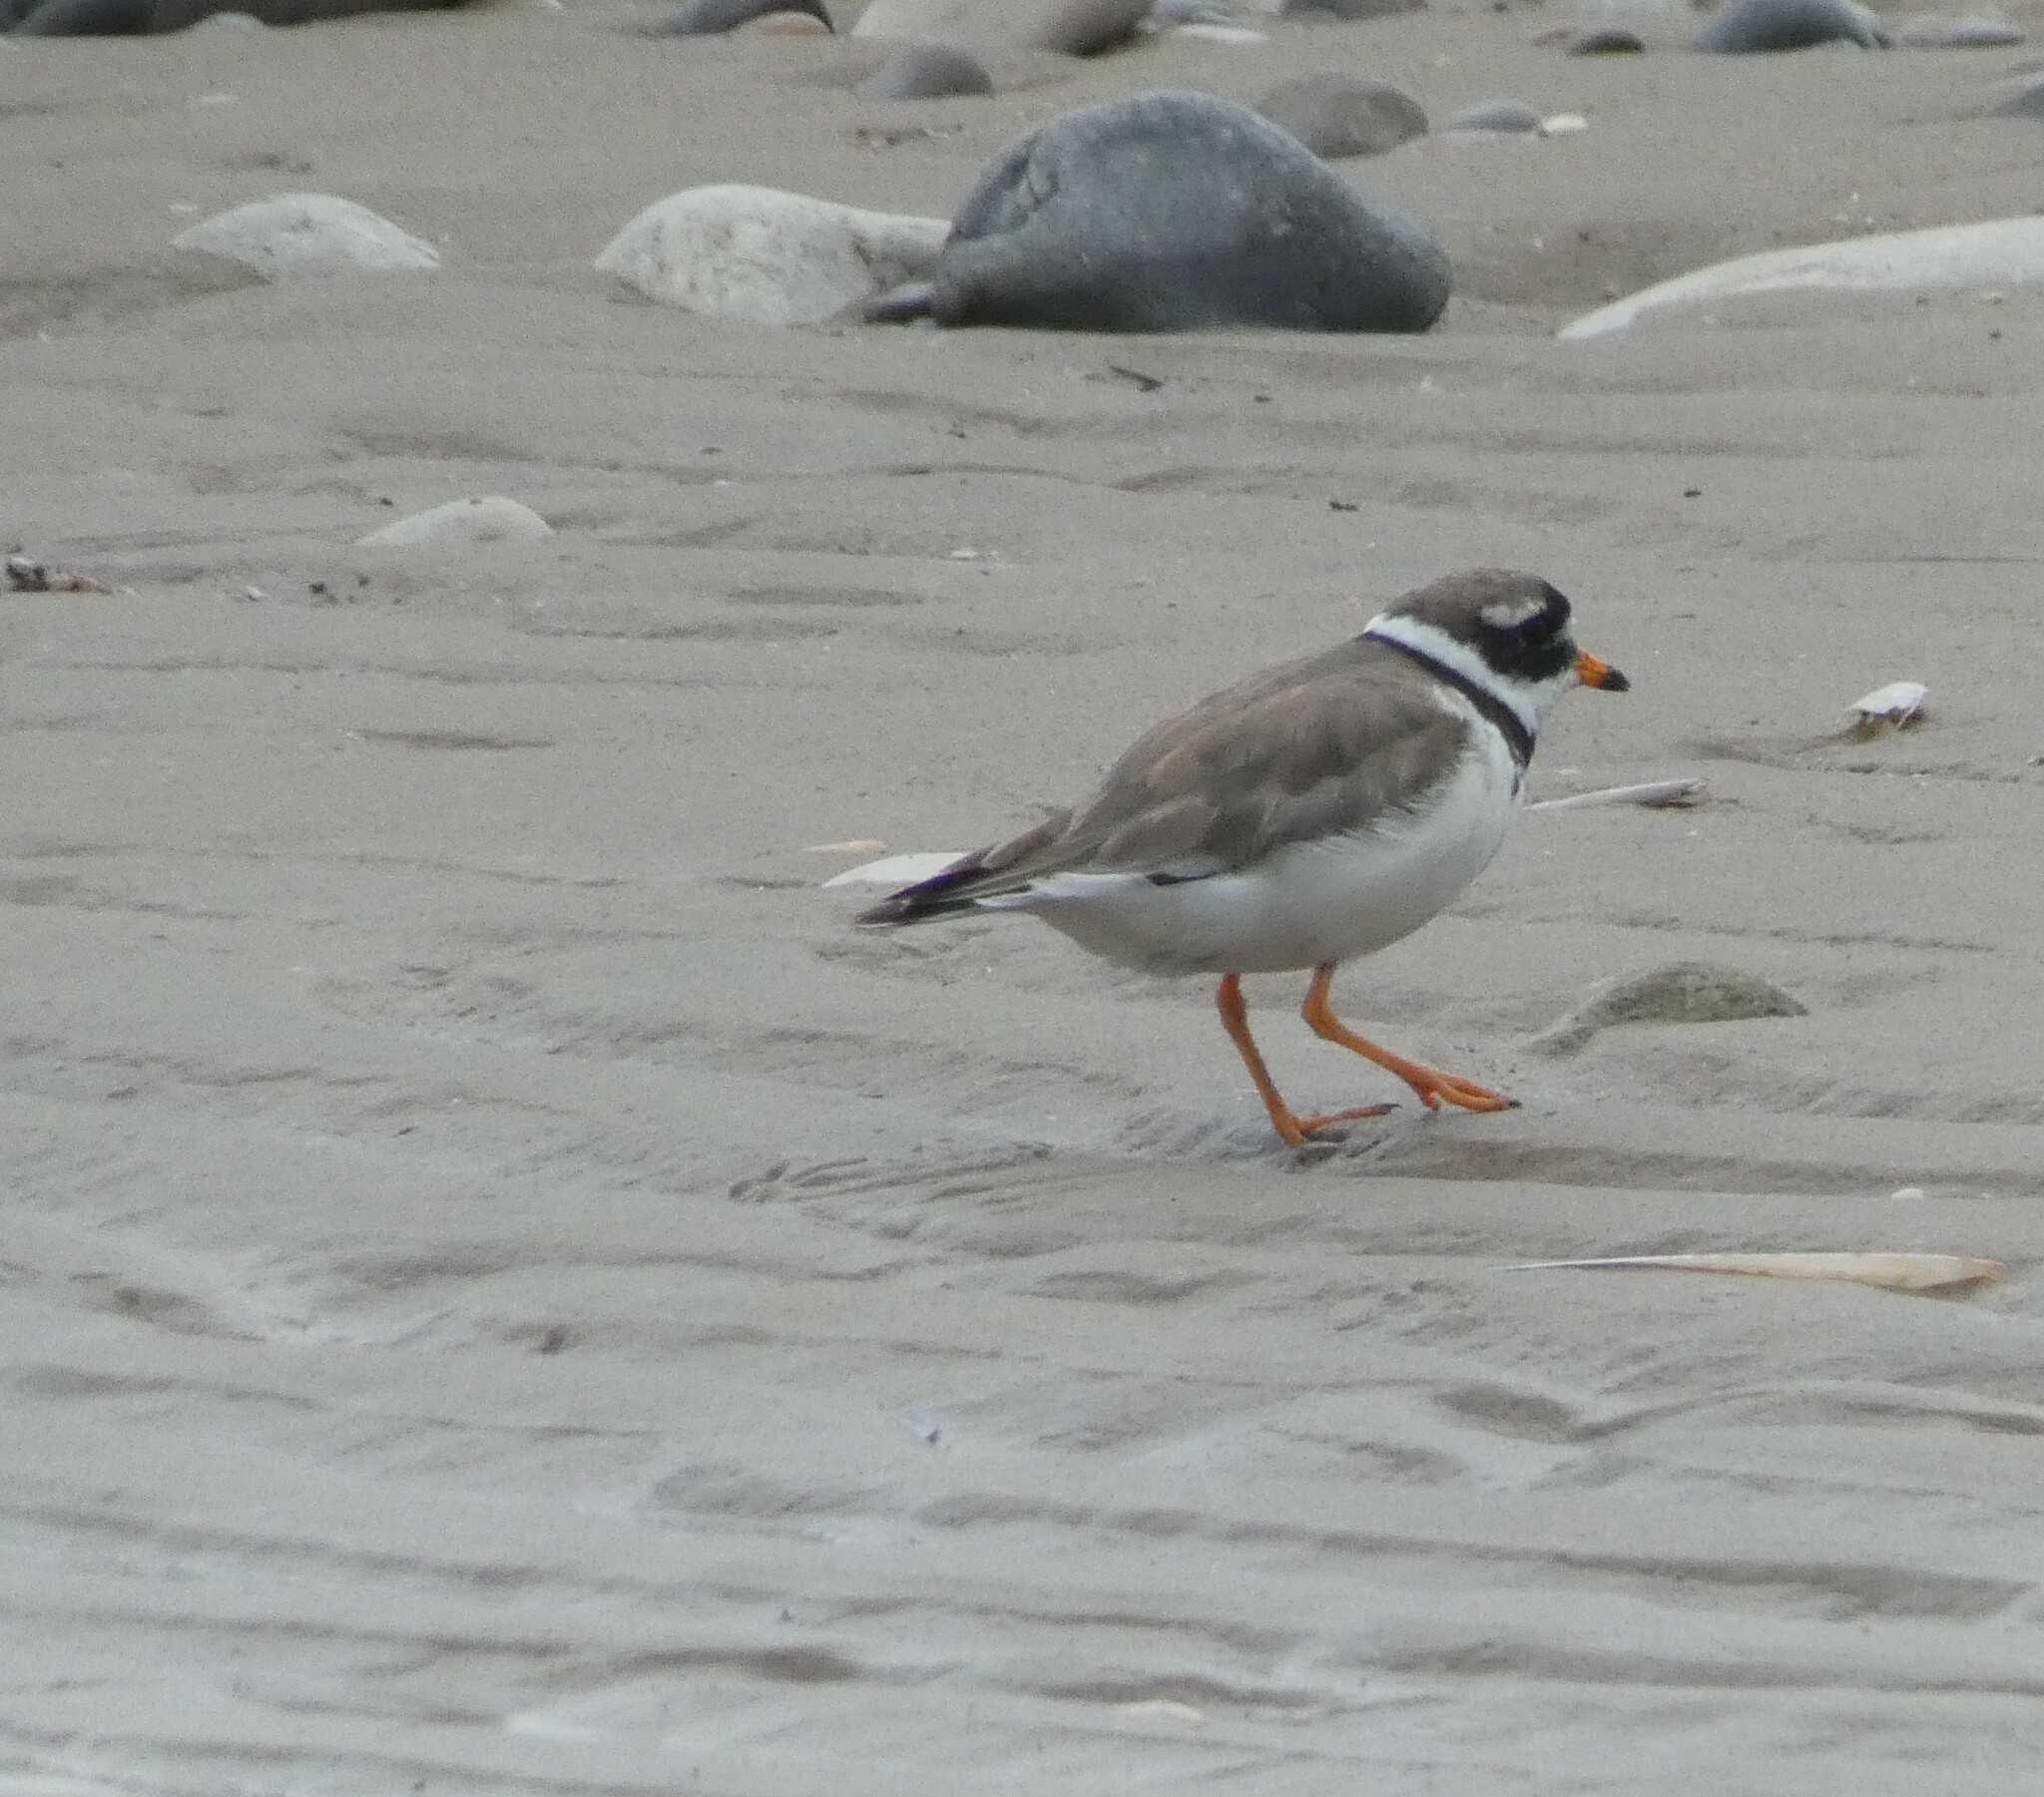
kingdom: Animalia
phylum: Chordata
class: Aves
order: Charadriiformes
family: Charadriidae
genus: Charadrius
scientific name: Charadrius hiaticula
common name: Common ringed plover
